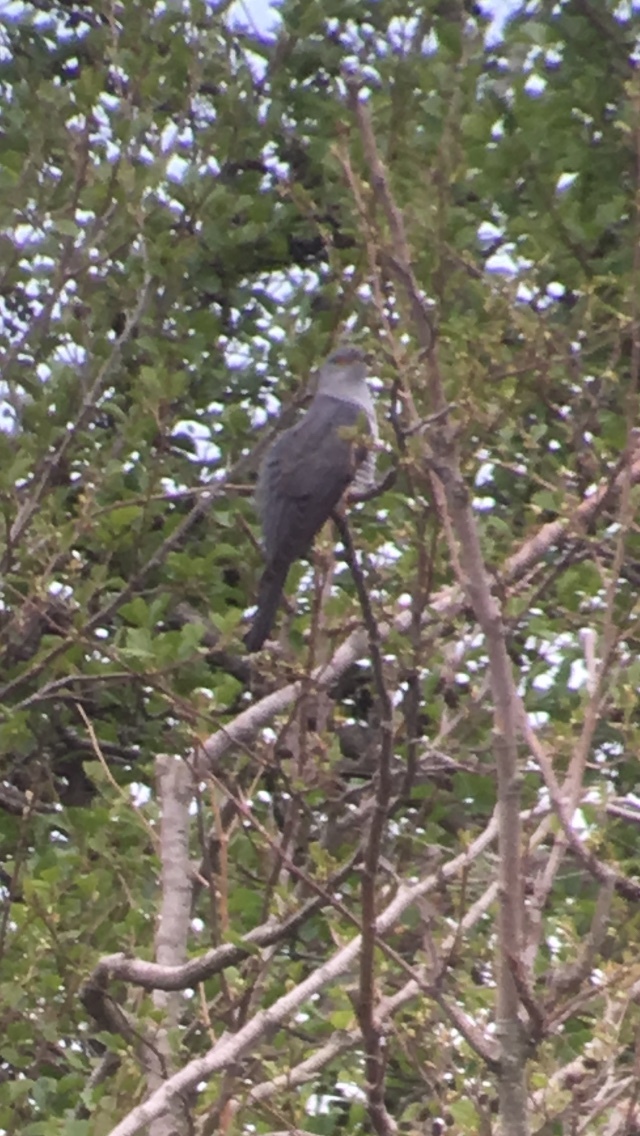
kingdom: Animalia
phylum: Chordata
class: Aves
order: Cuculiformes
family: Cuculidae
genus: Cuculus
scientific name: Cuculus canorus
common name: Common cuckoo
